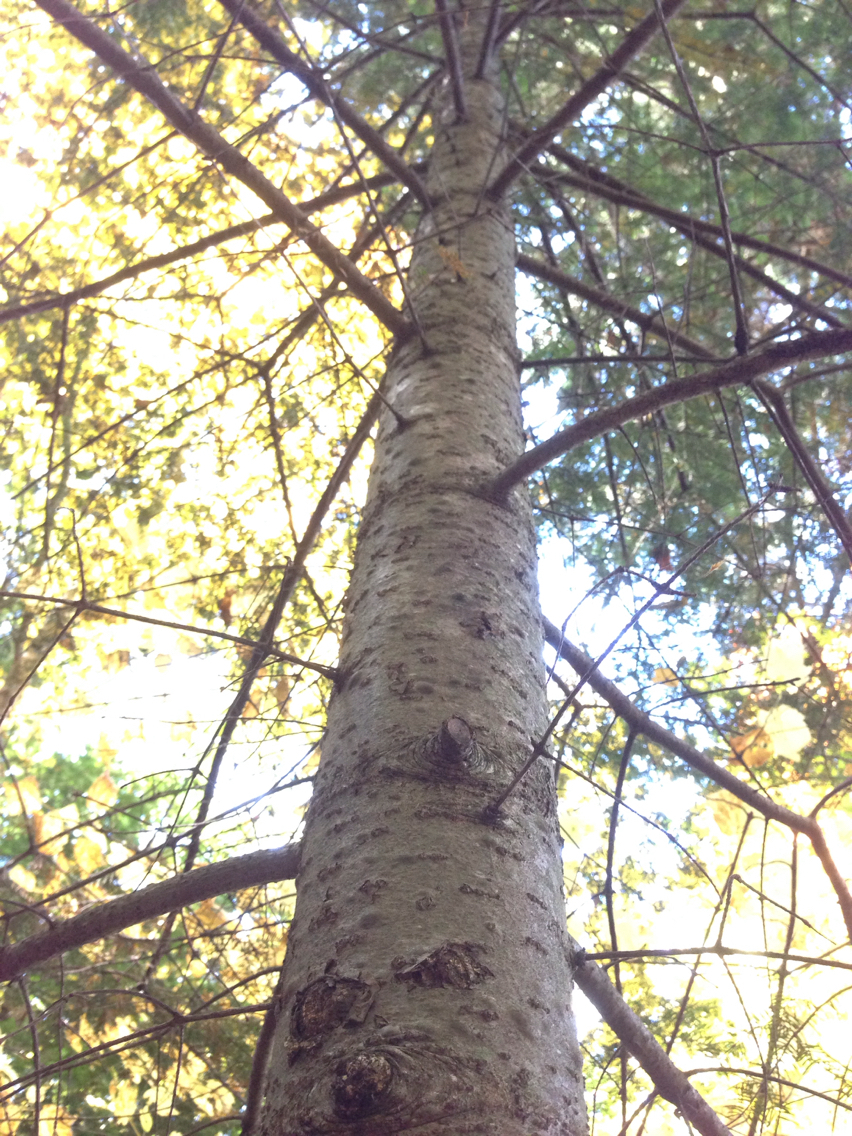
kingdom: Plantae
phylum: Tracheophyta
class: Pinopsida
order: Pinales
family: Pinaceae
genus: Abies
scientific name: Abies balsamea
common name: Balsam fir
